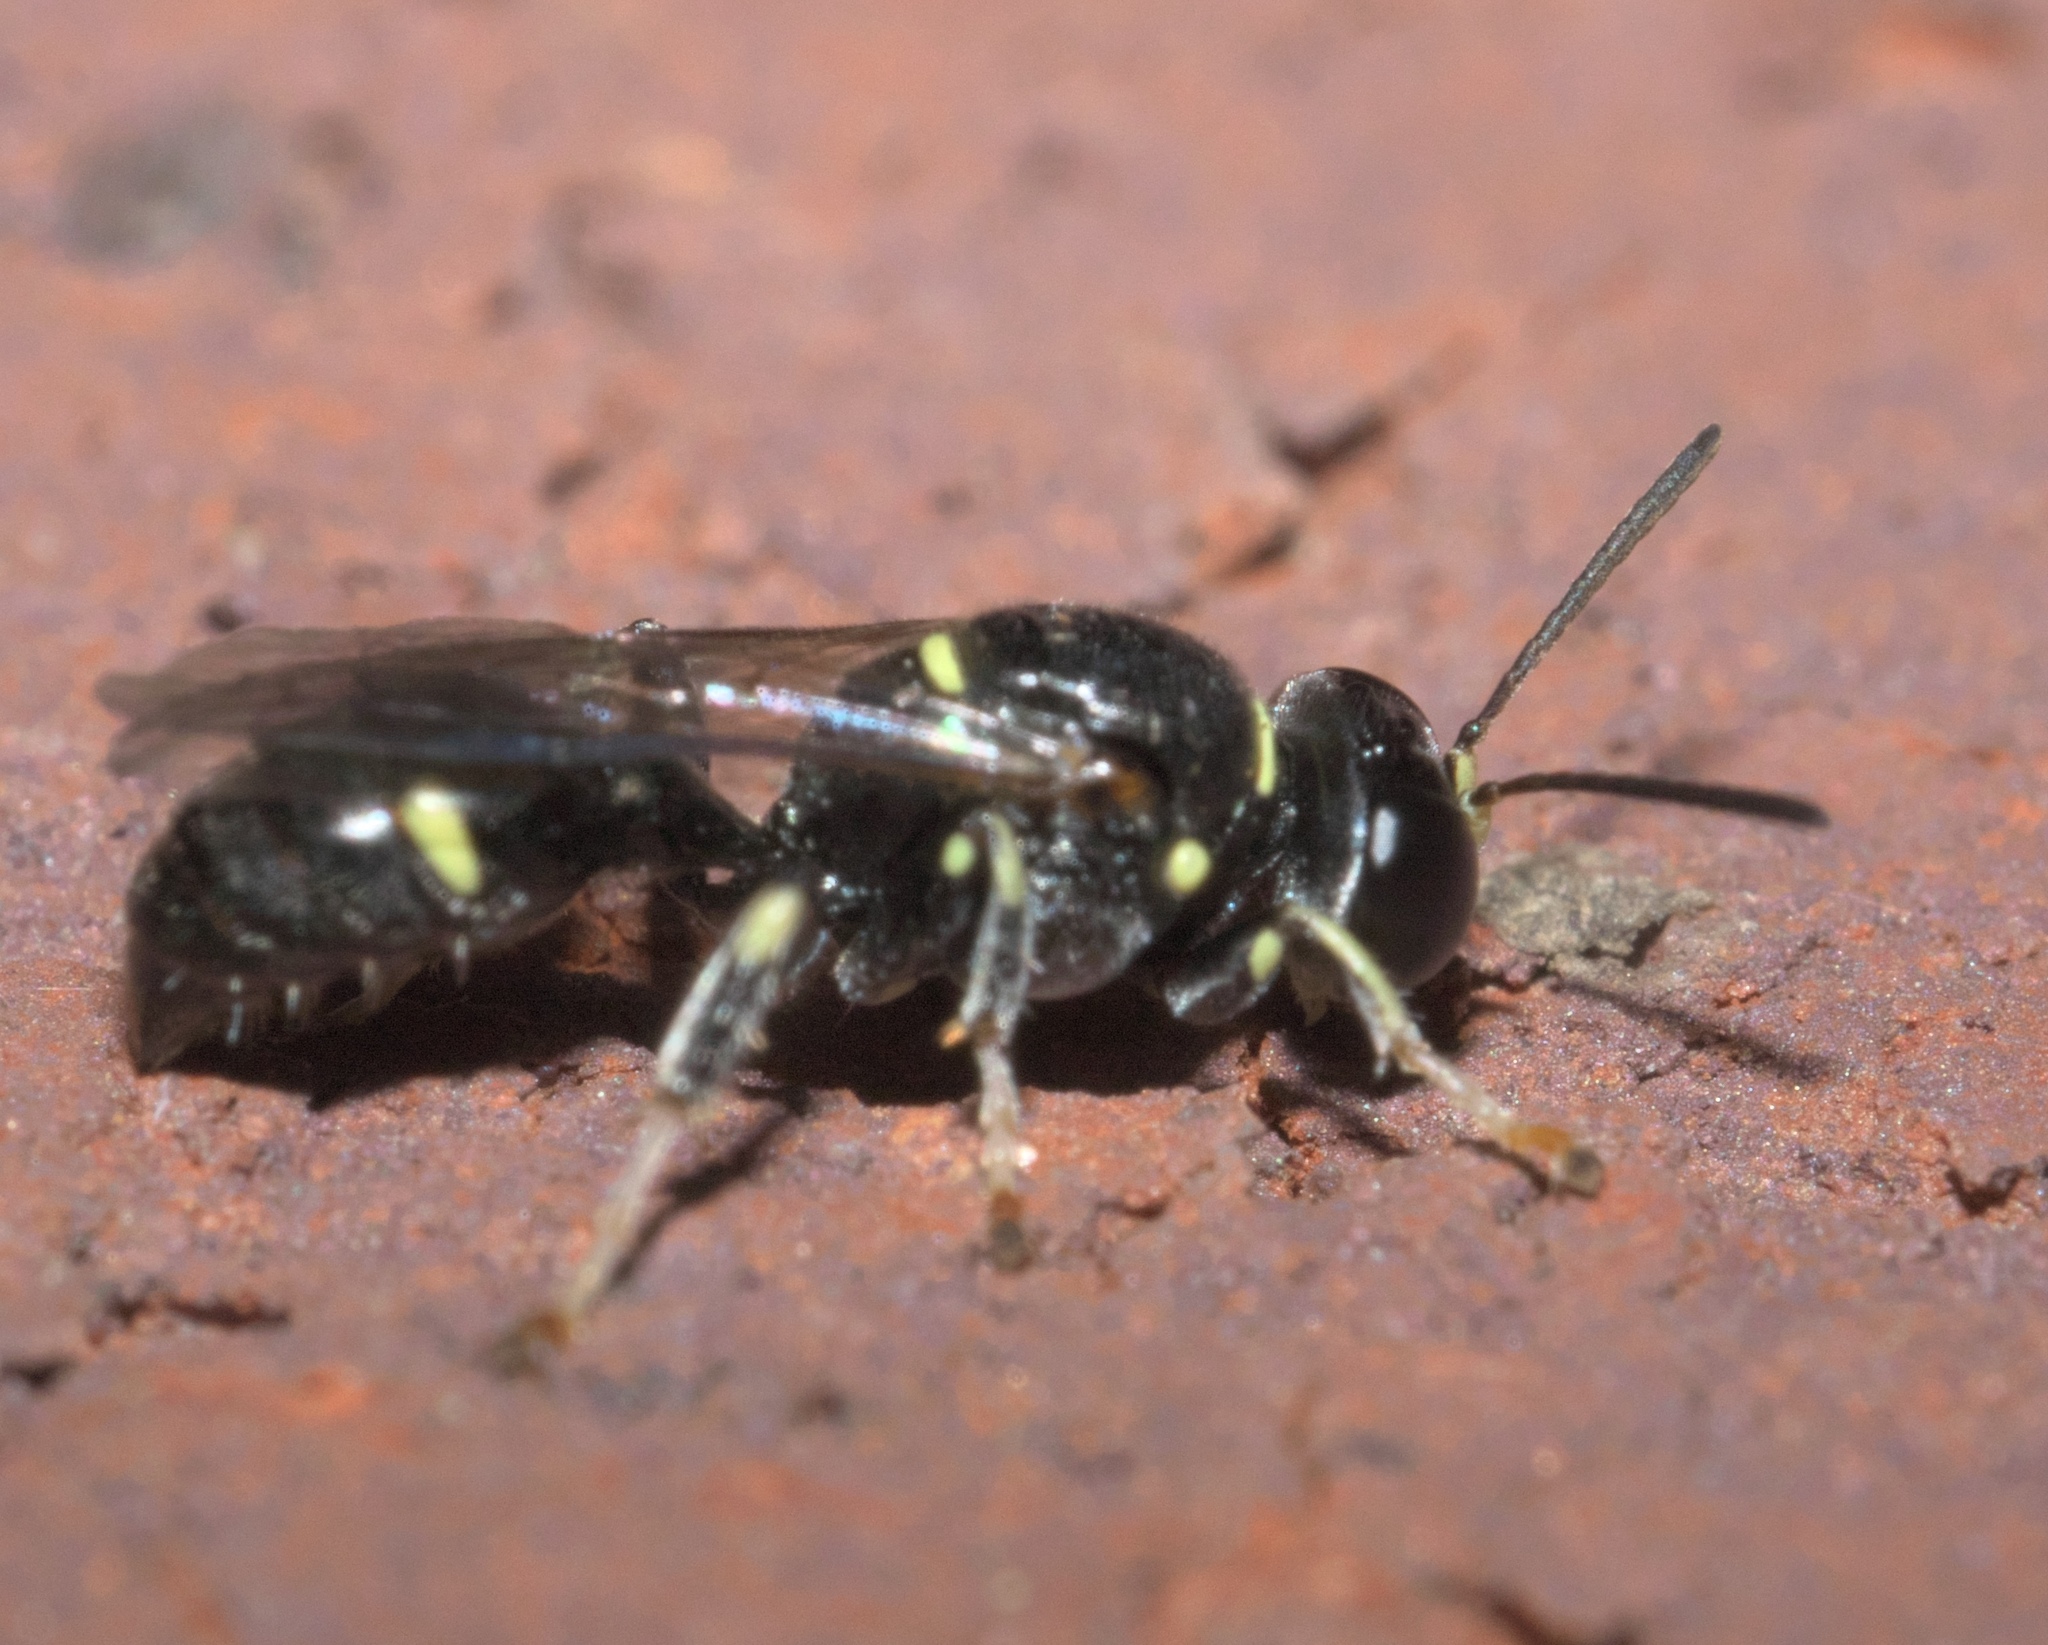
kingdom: Animalia
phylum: Arthropoda
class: Insecta
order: Hymenoptera
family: Crabronidae
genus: Clitemnestra
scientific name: Clitemnestra bipunctata
